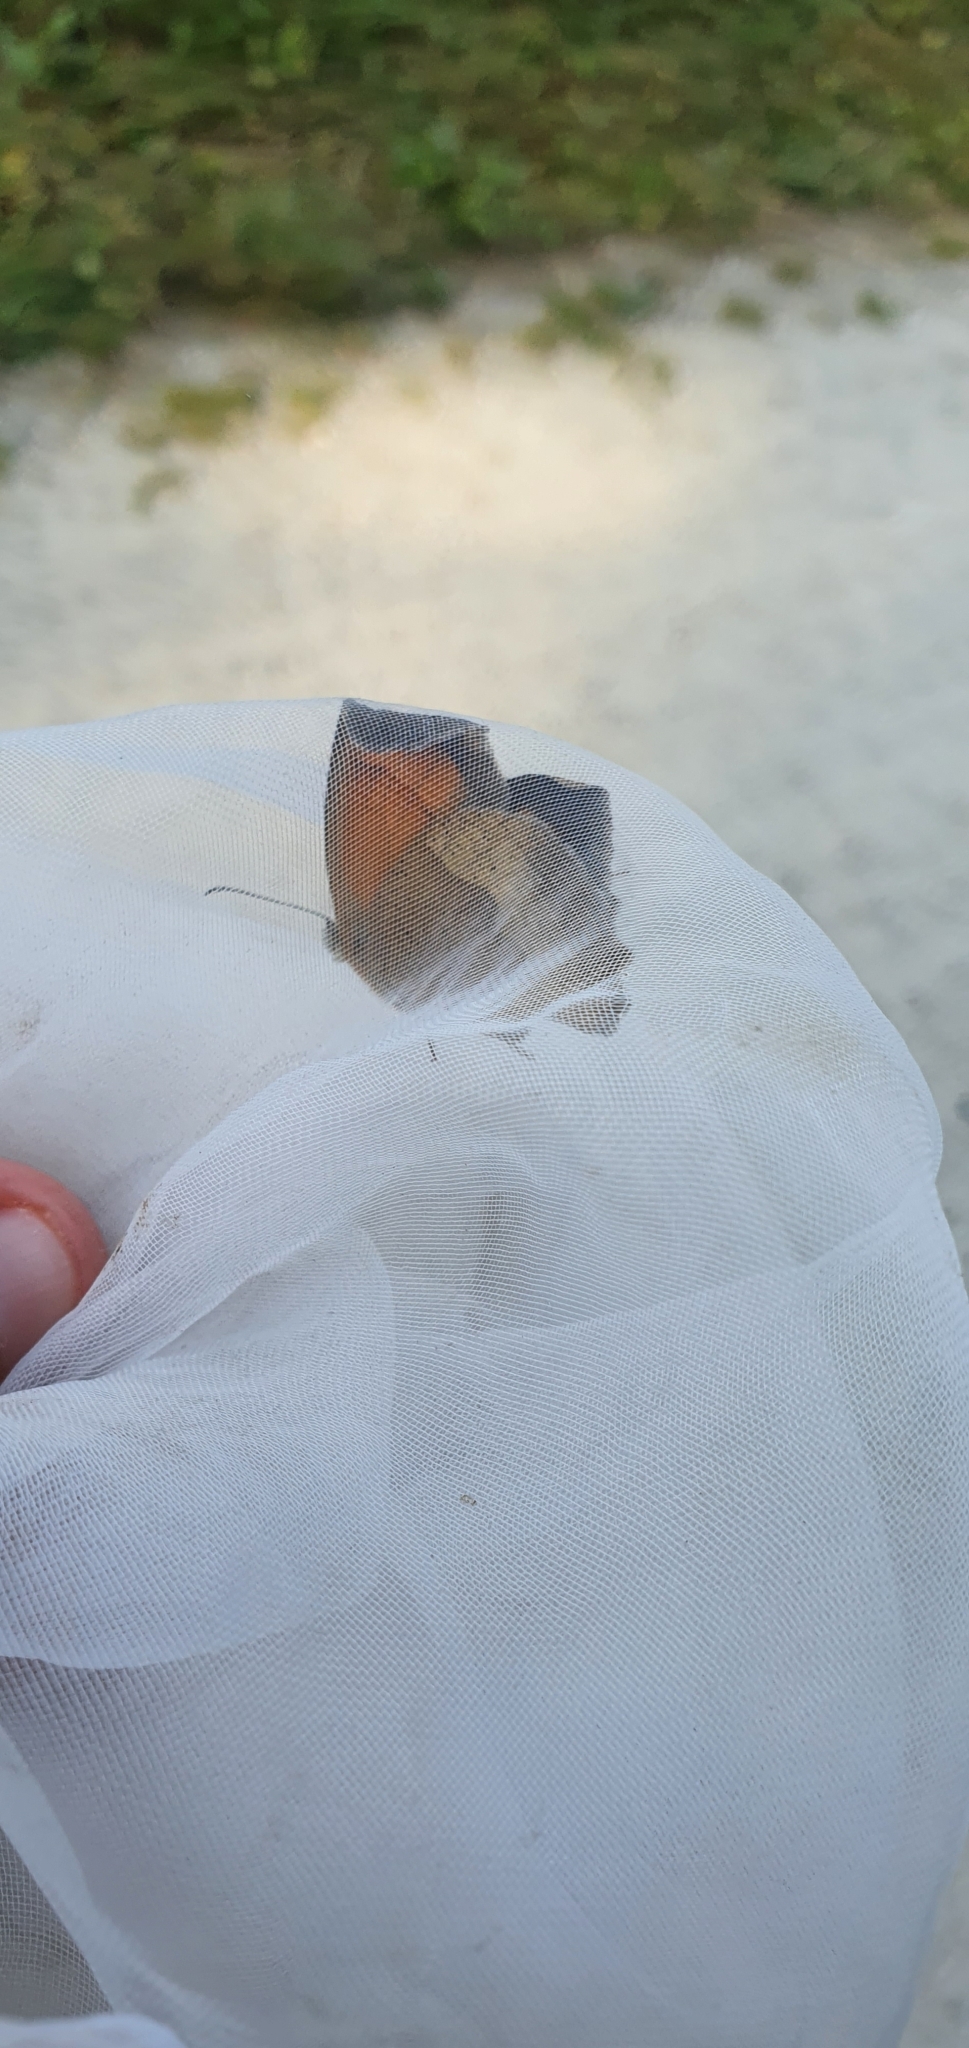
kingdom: Animalia
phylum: Arthropoda
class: Insecta
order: Lepidoptera
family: Nymphalidae
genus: Maniola
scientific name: Maniola jurtina
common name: Meadow brown
